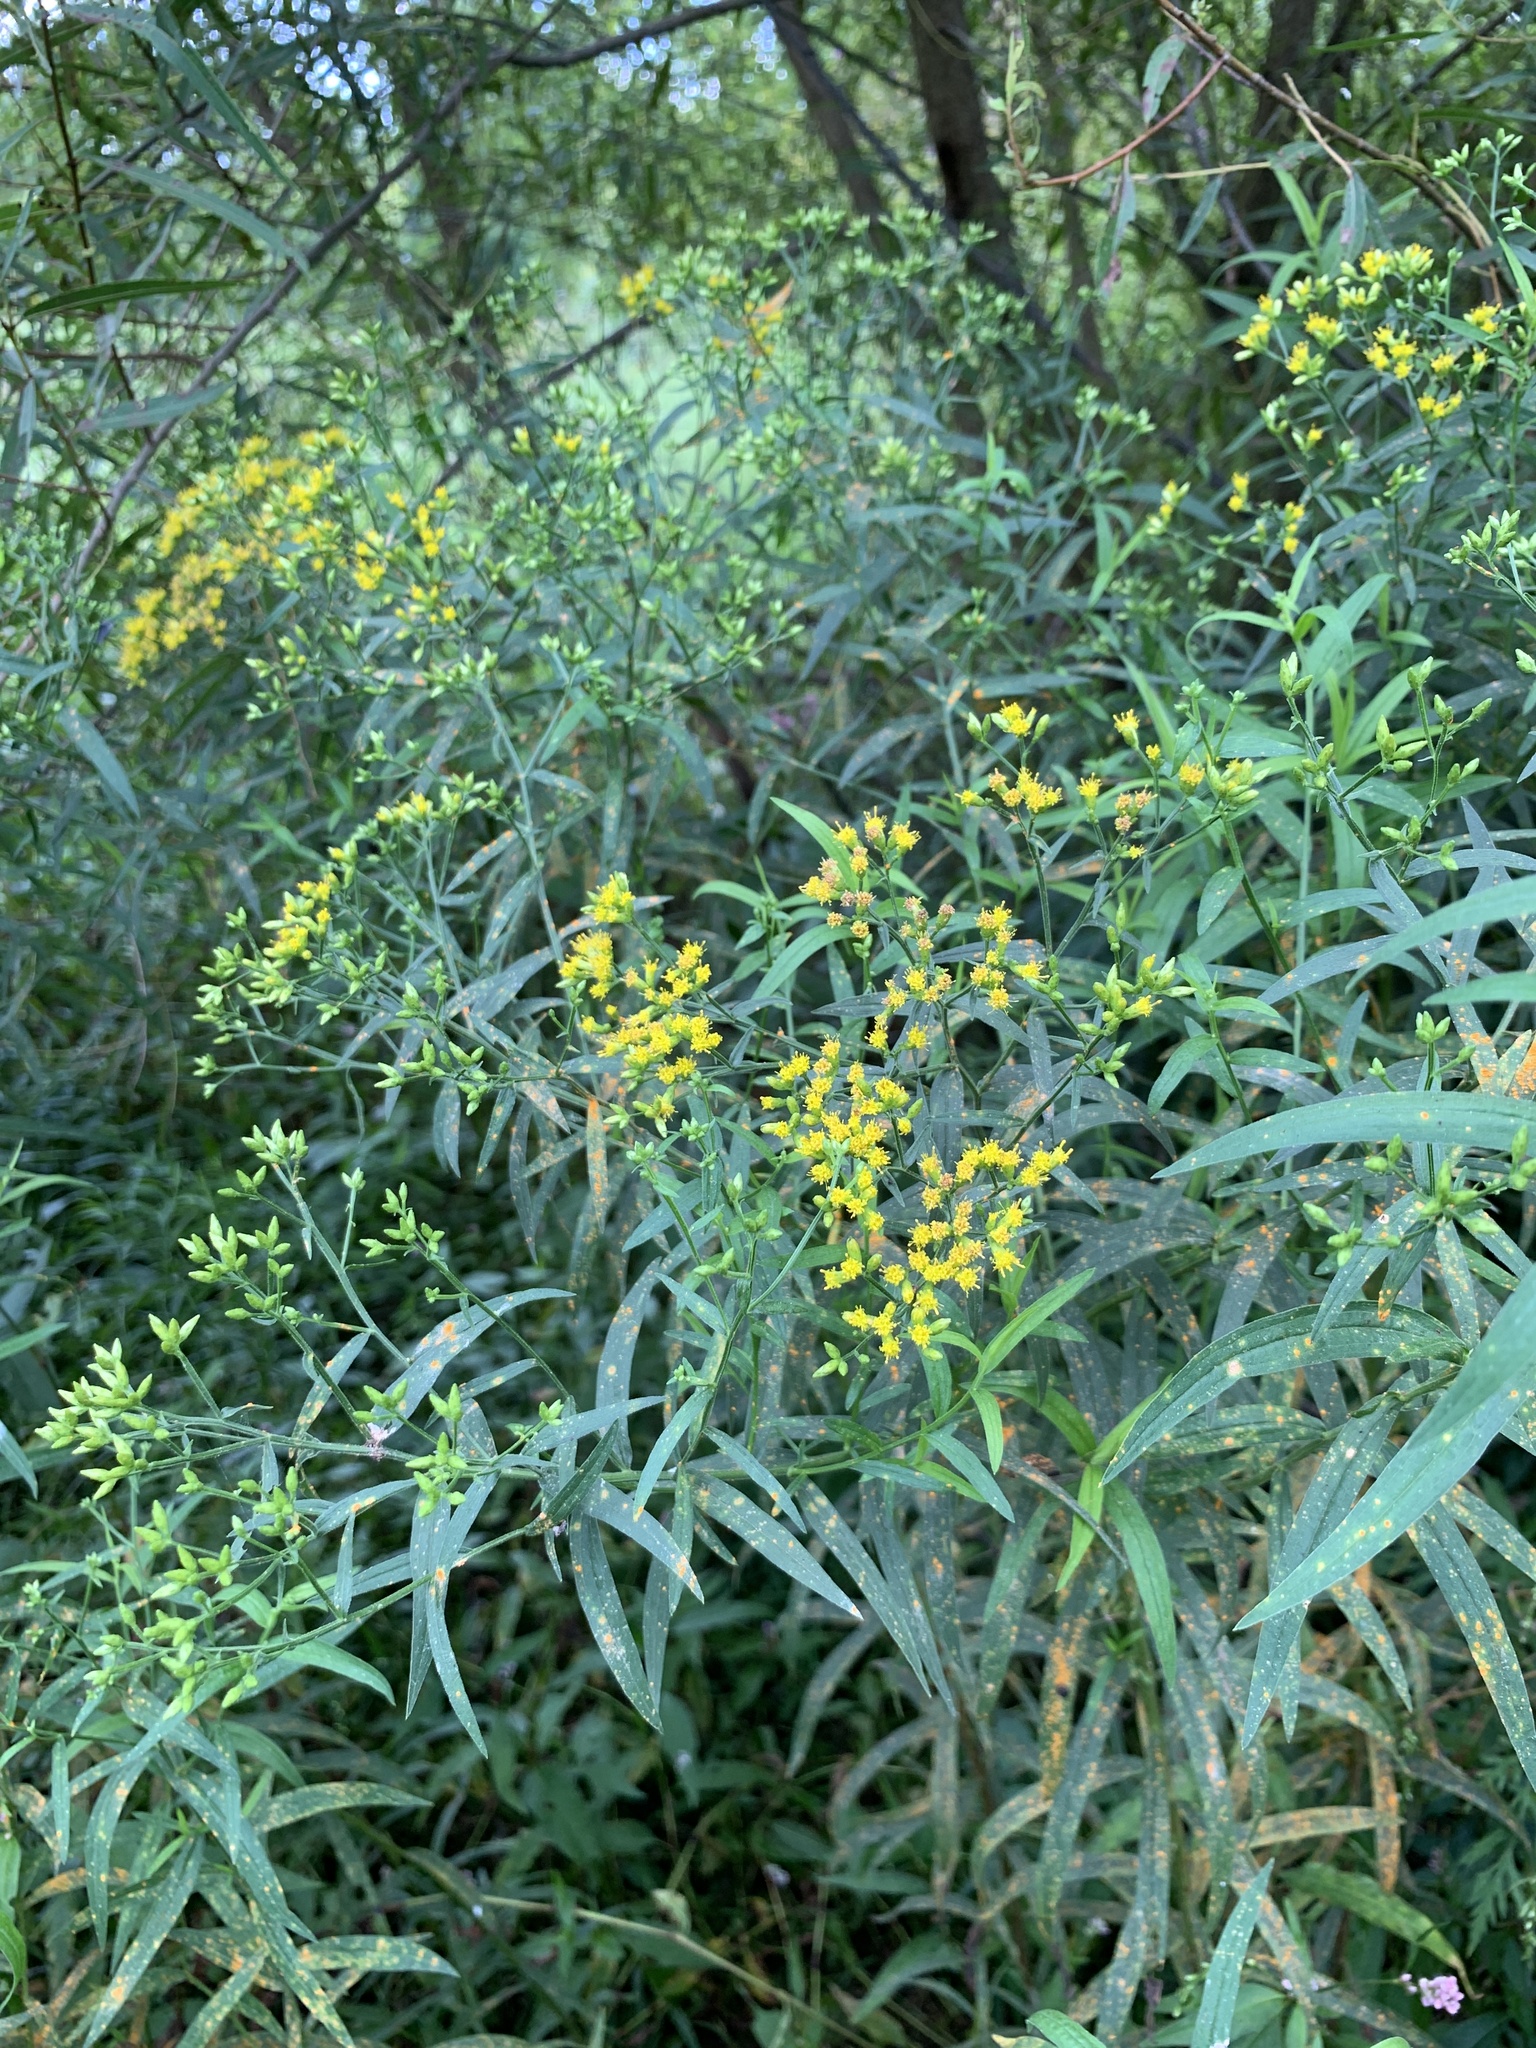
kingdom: Plantae
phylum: Tracheophyta
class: Magnoliopsida
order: Asterales
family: Asteraceae
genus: Euthamia
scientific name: Euthamia graminifolia
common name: Common goldentop
